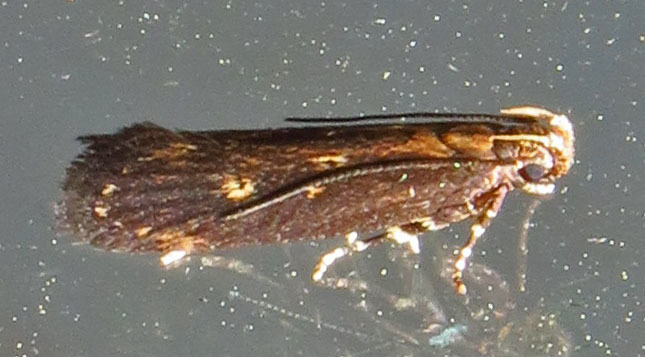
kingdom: Animalia
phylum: Arthropoda
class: Insecta
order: Lepidoptera
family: Gelechiidae
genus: Chionodes
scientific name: Chionodes discoocellella
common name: Eye-ringed chionodes moth
